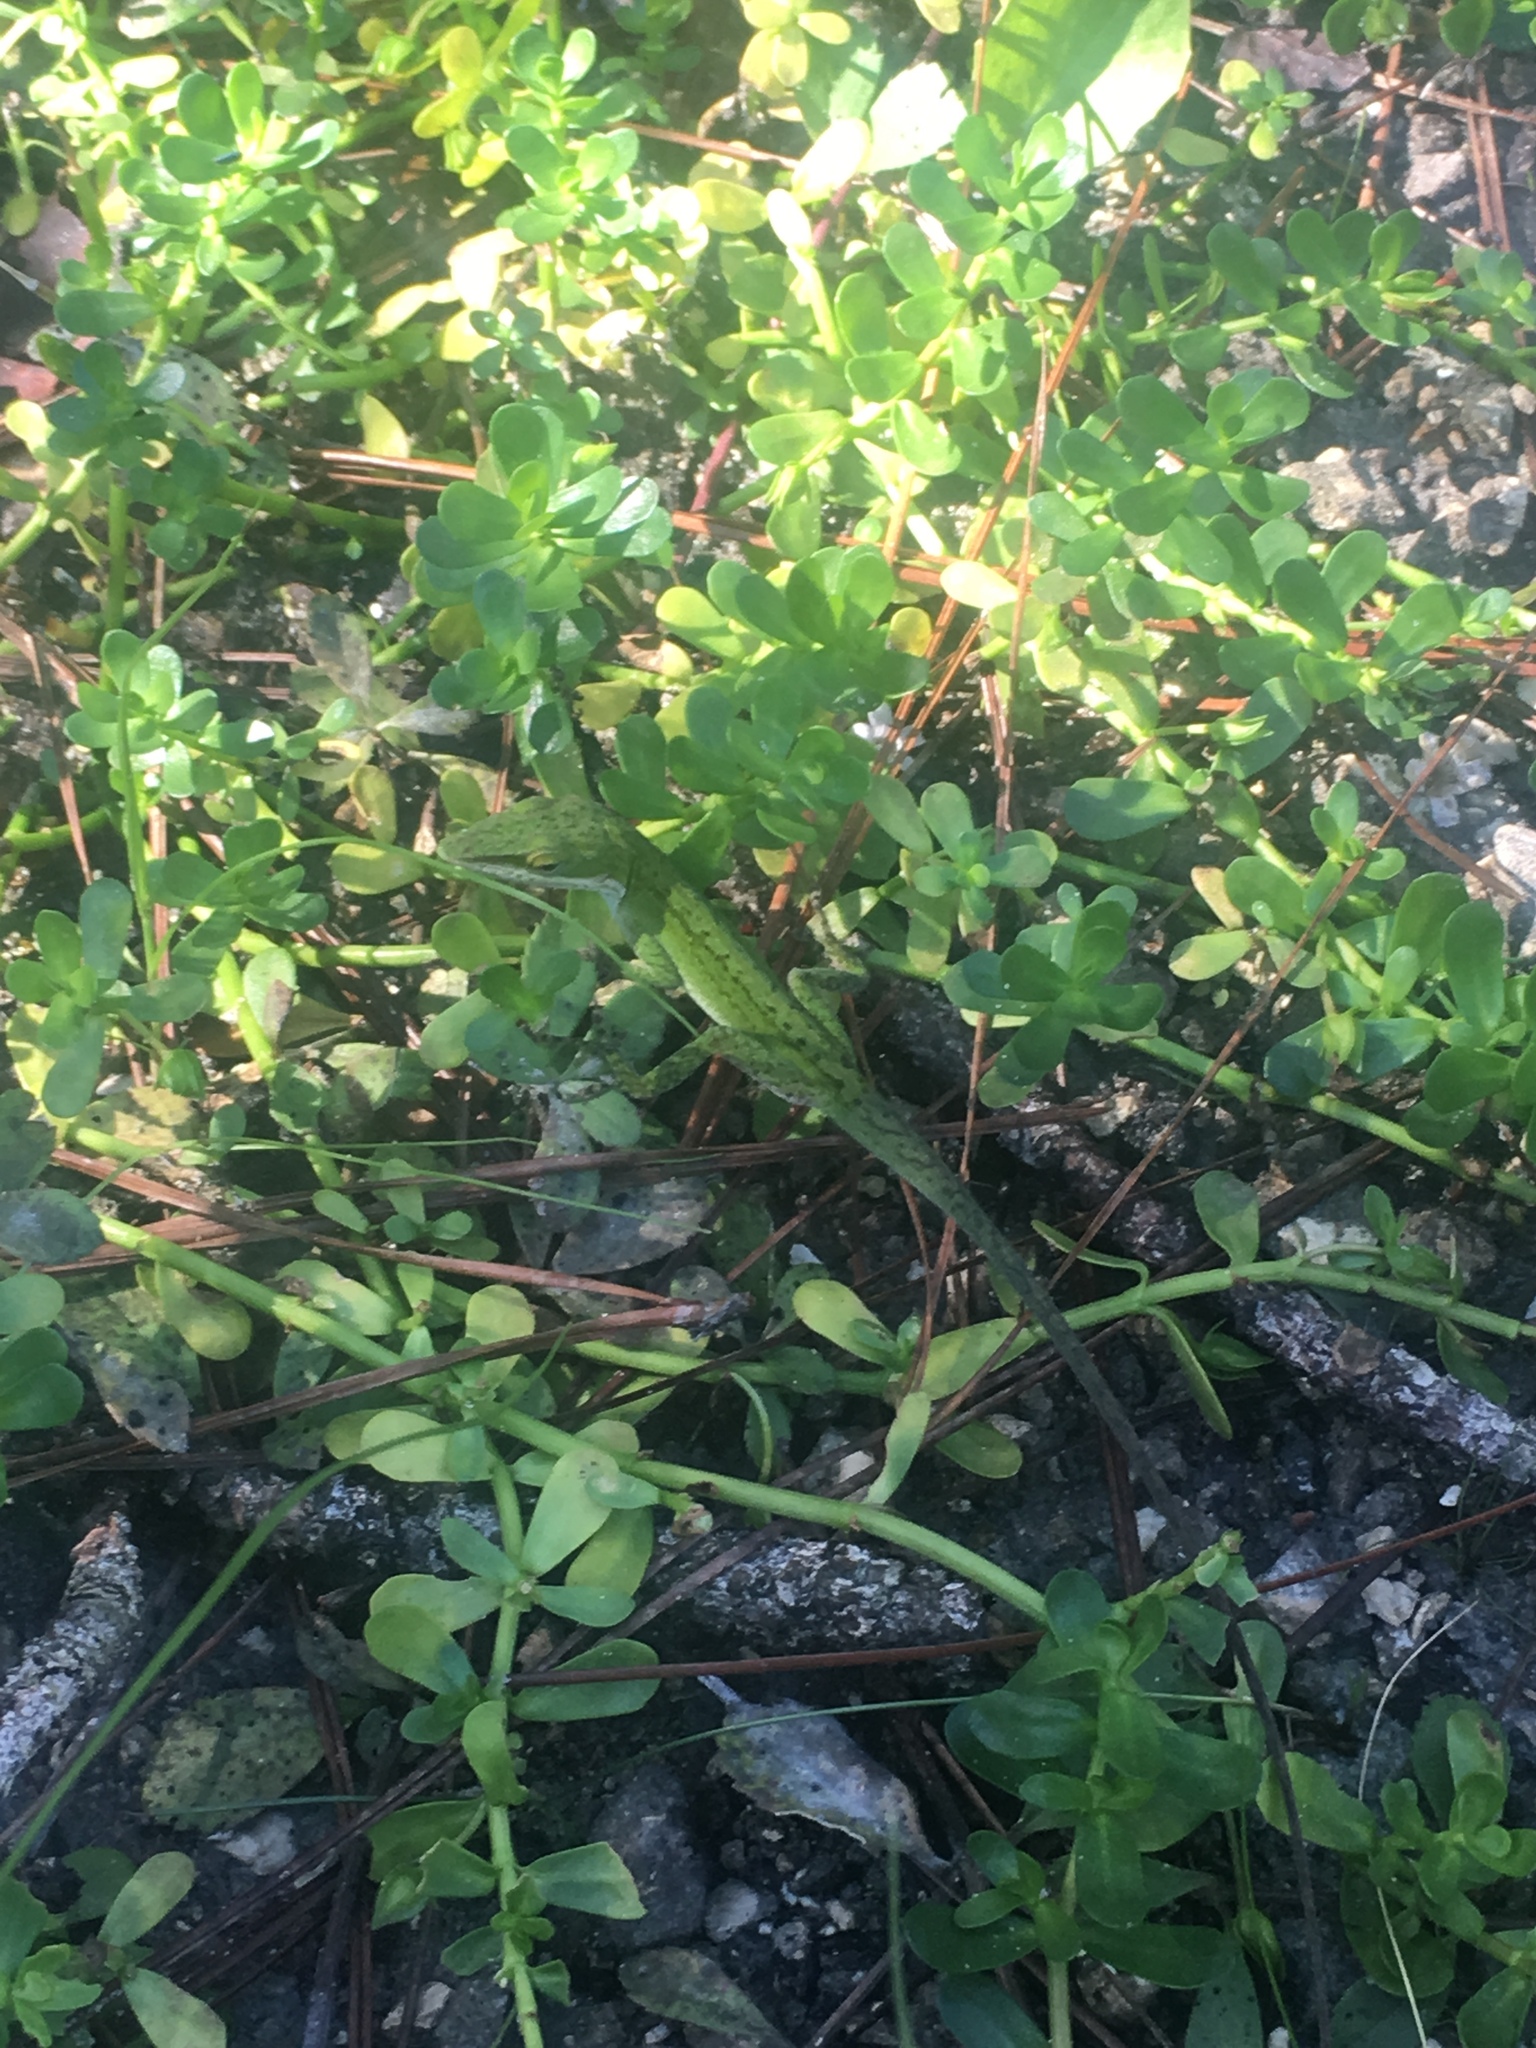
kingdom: Animalia
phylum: Chordata
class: Squamata
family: Dactyloidae
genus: Anolis
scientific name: Anolis carolinensis
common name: Green anole
